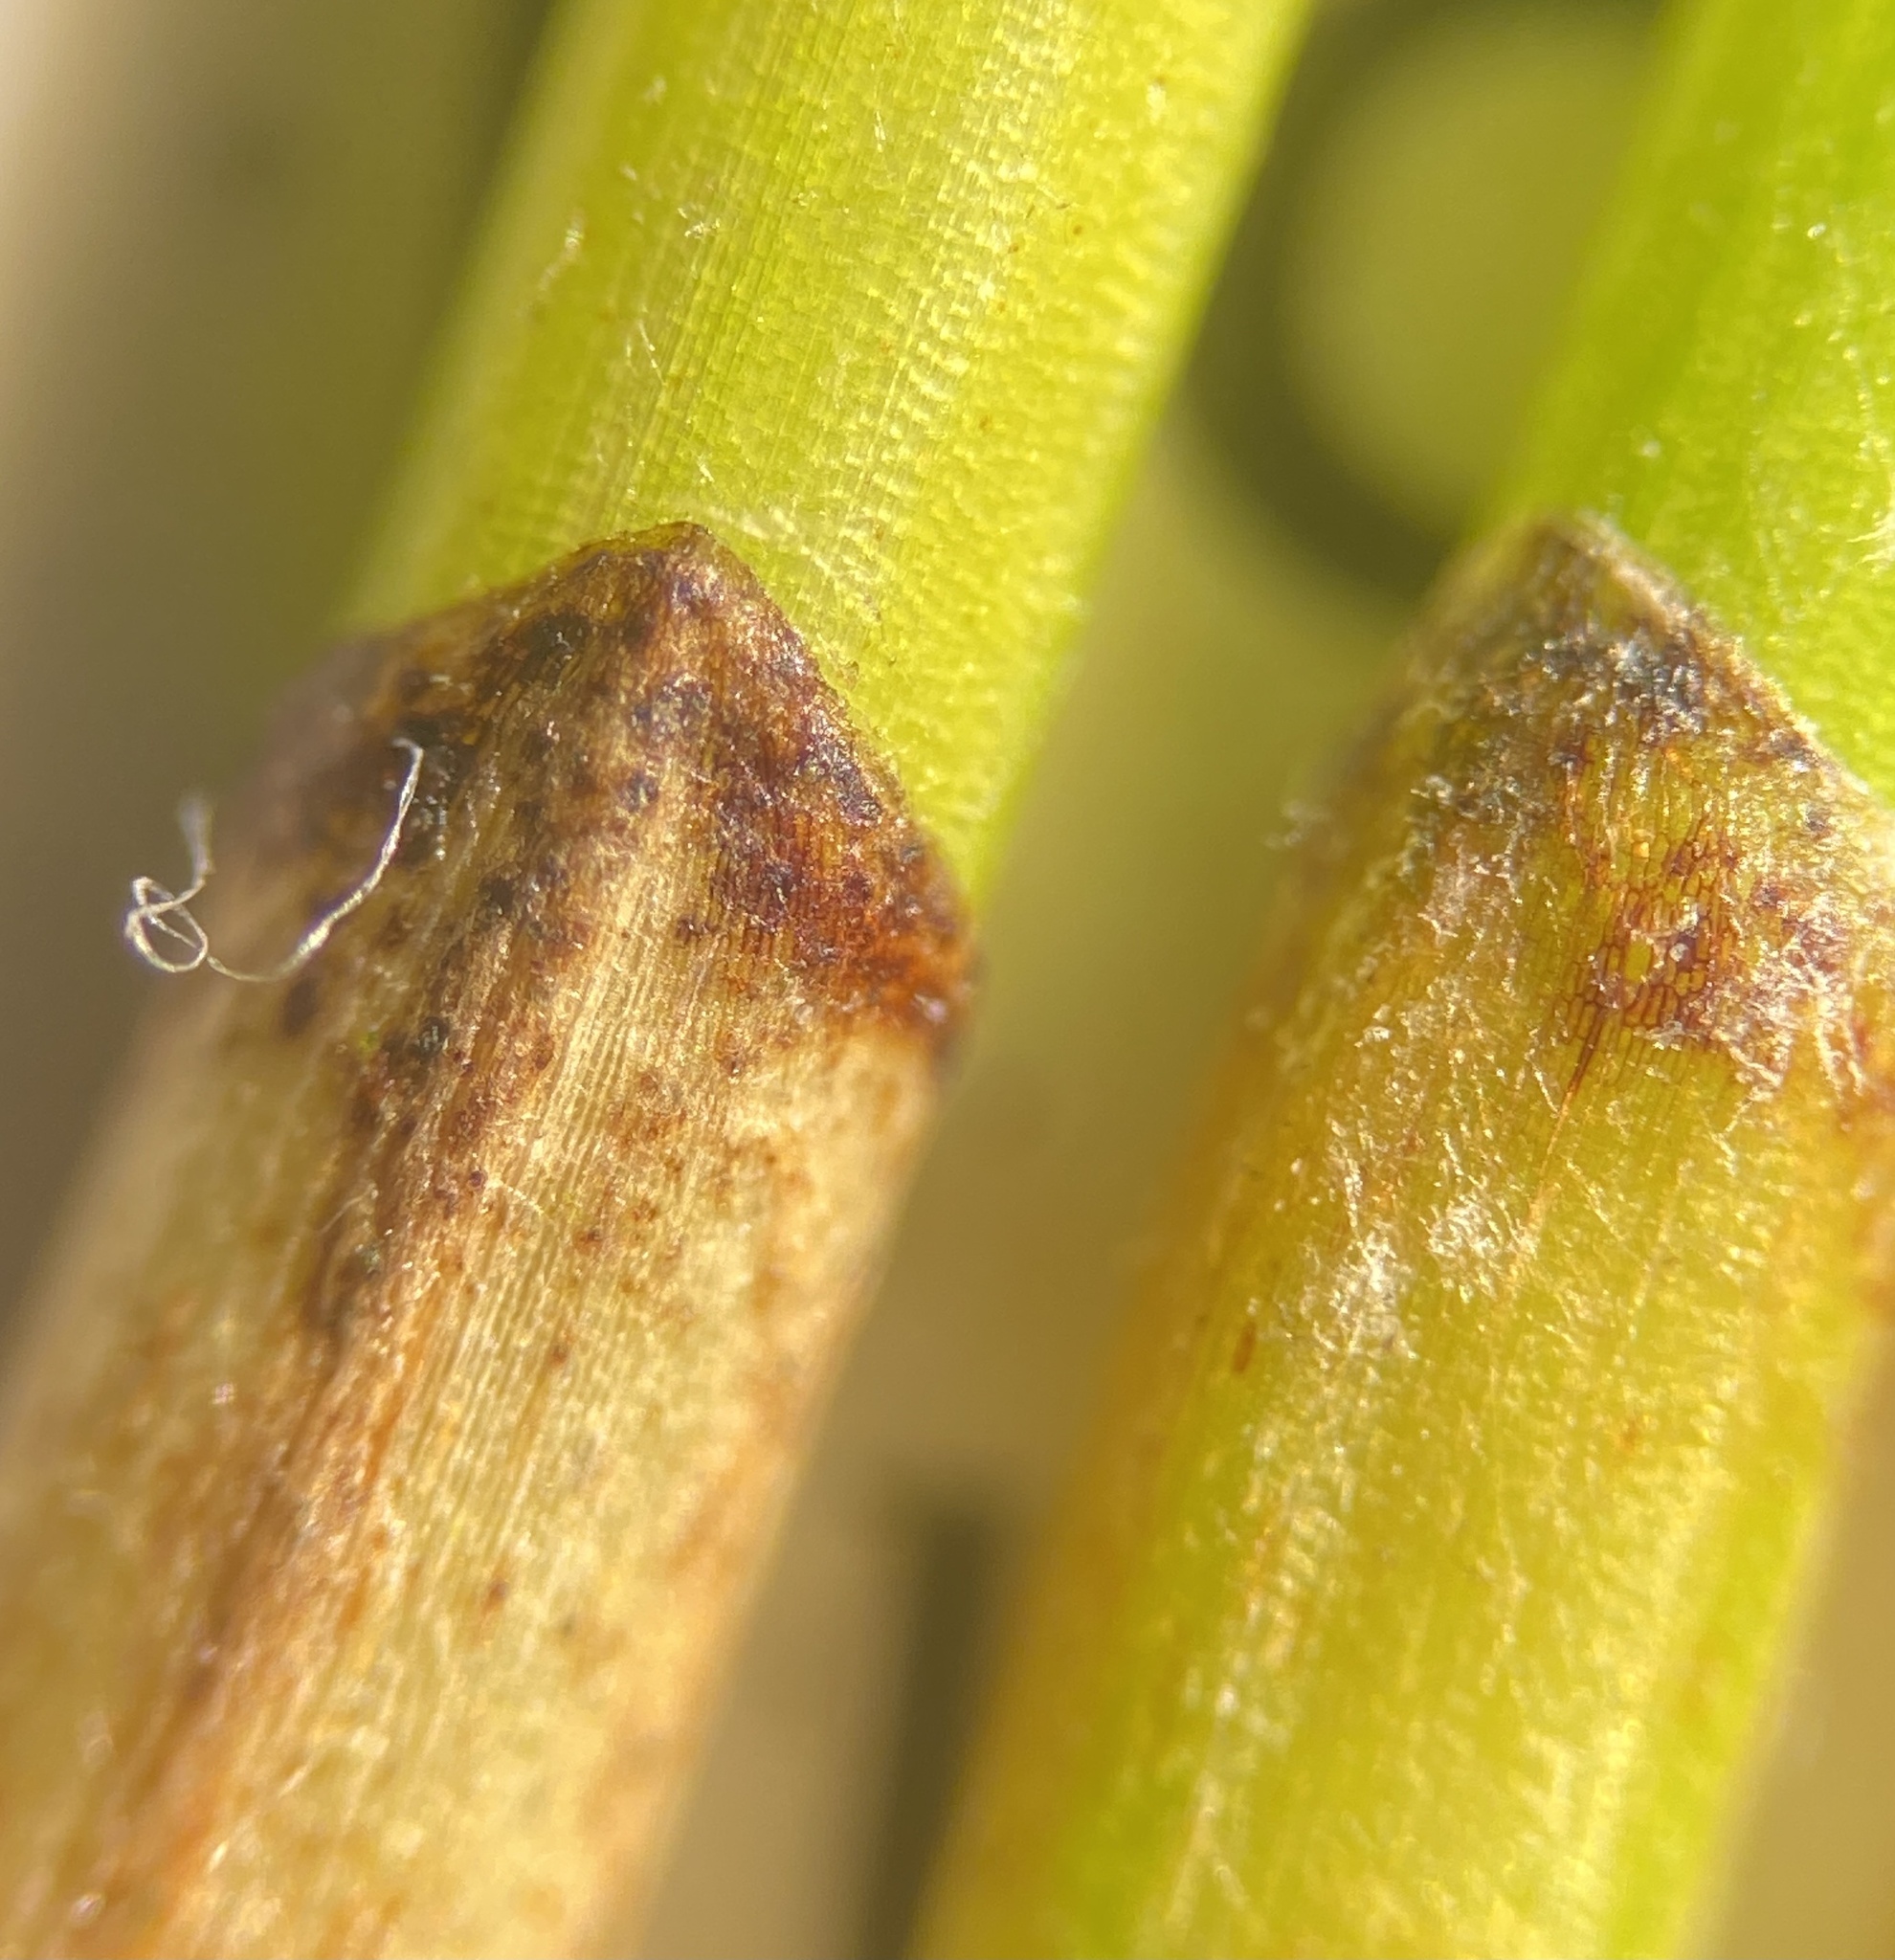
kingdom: Plantae
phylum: Tracheophyta
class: Liliopsida
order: Poales
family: Cyperaceae
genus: Eleocharis
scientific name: Eleocharis palustris
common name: Common spike-rush
